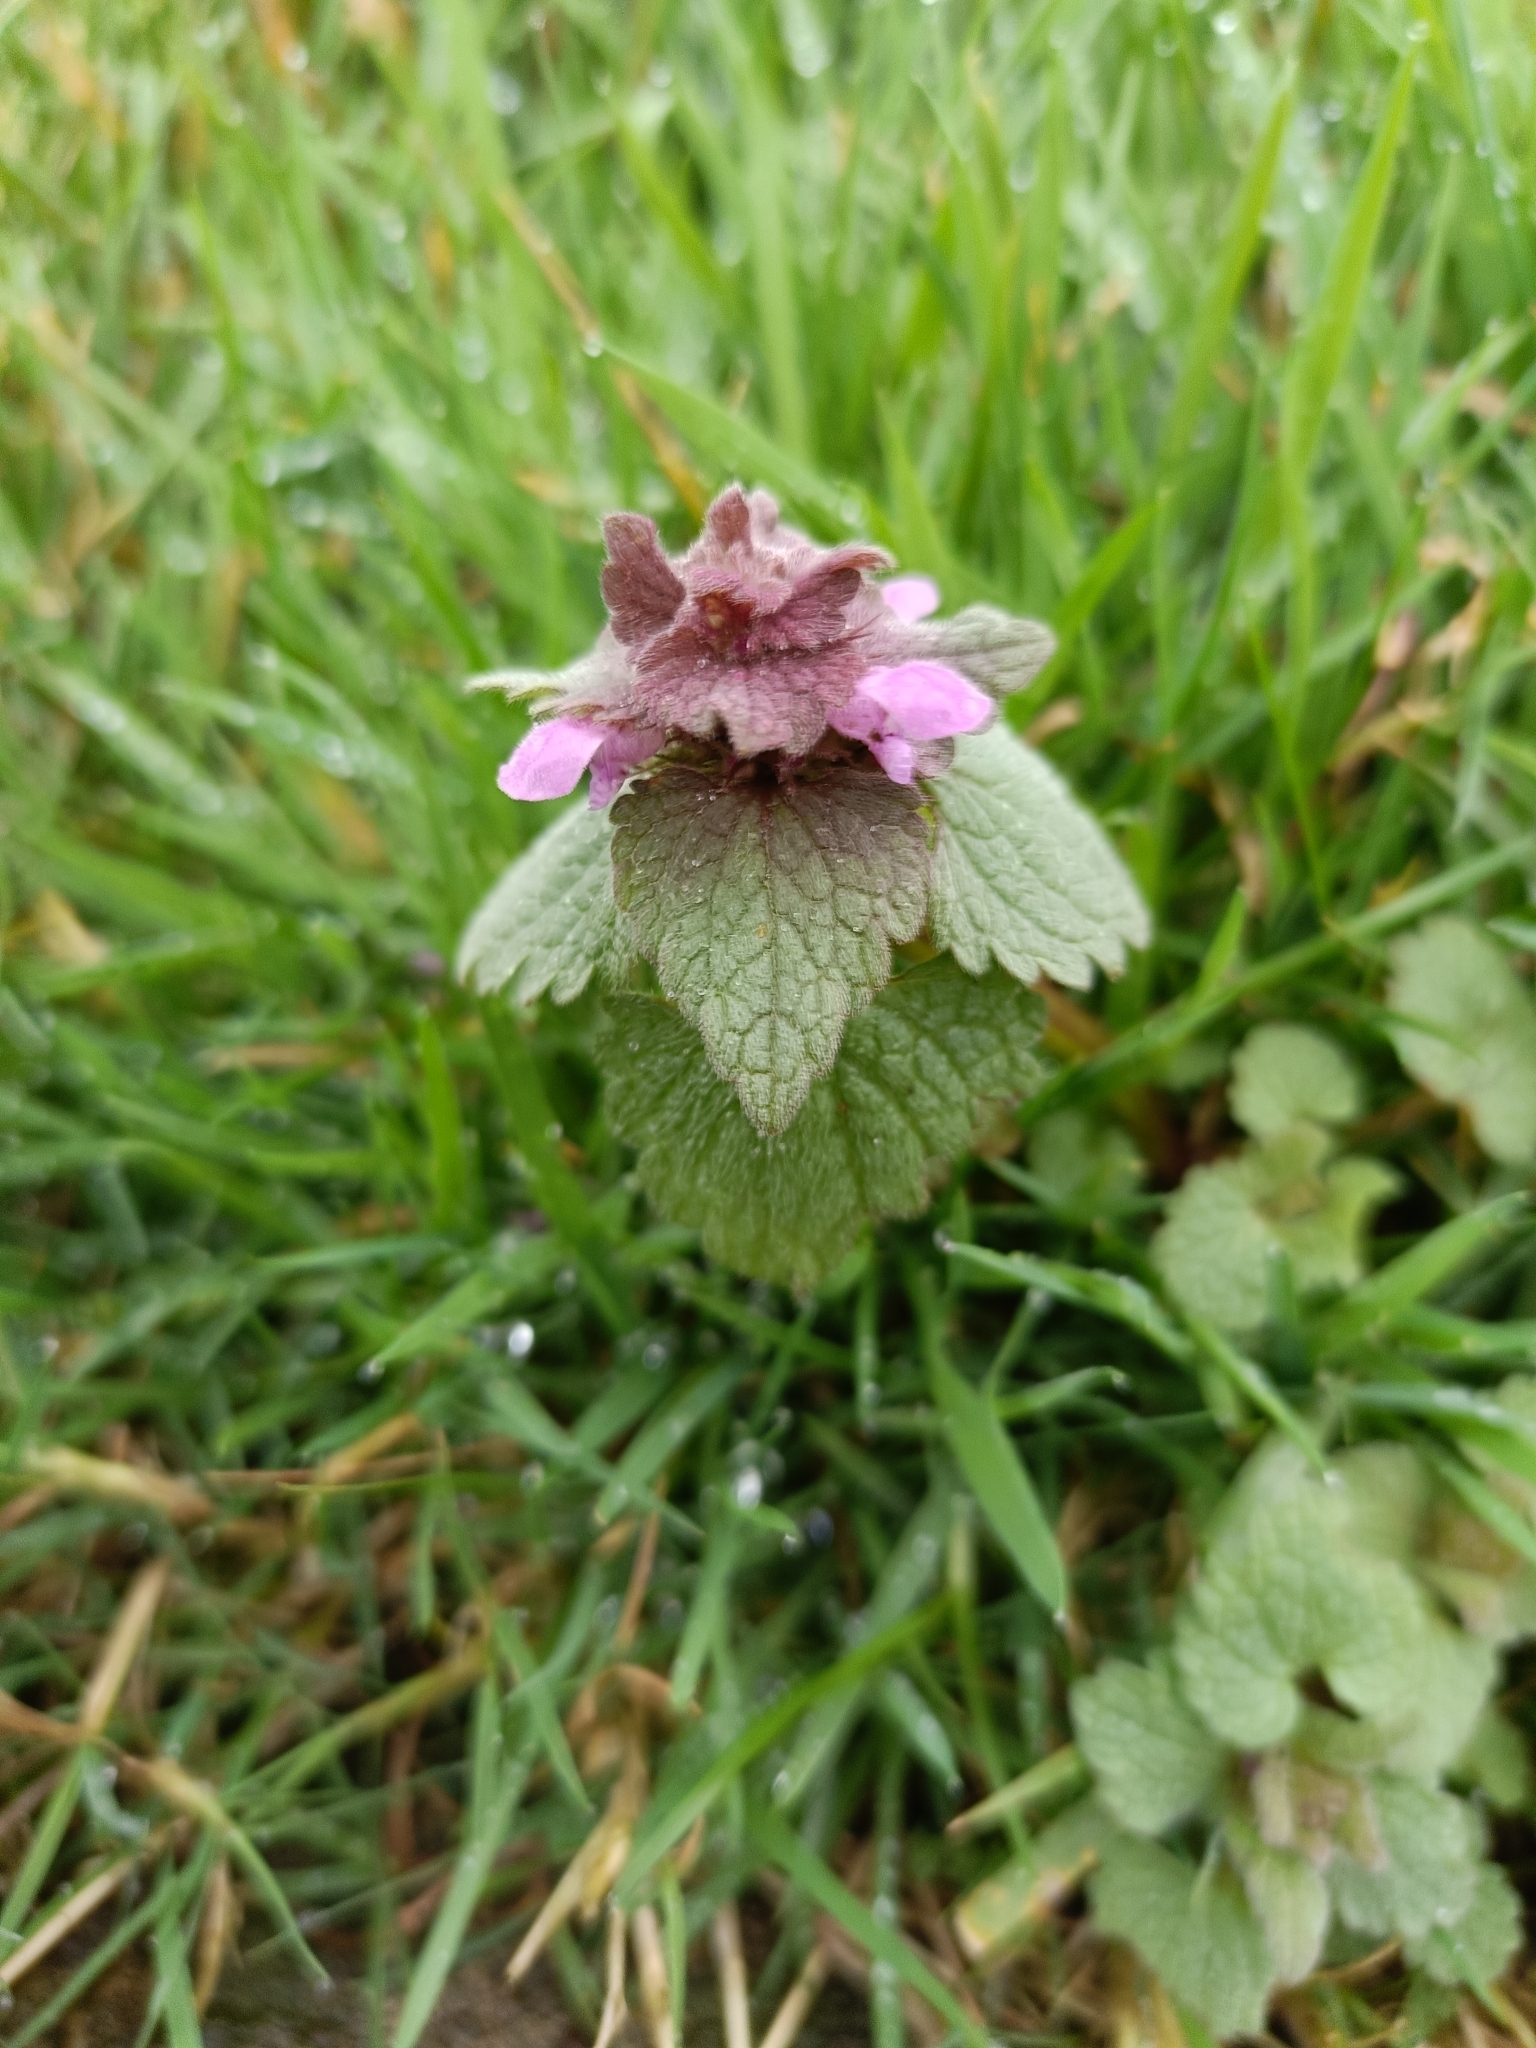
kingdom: Plantae
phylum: Tracheophyta
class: Magnoliopsida
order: Lamiales
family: Lamiaceae
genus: Lamium
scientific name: Lamium purpureum
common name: Red dead-nettle
